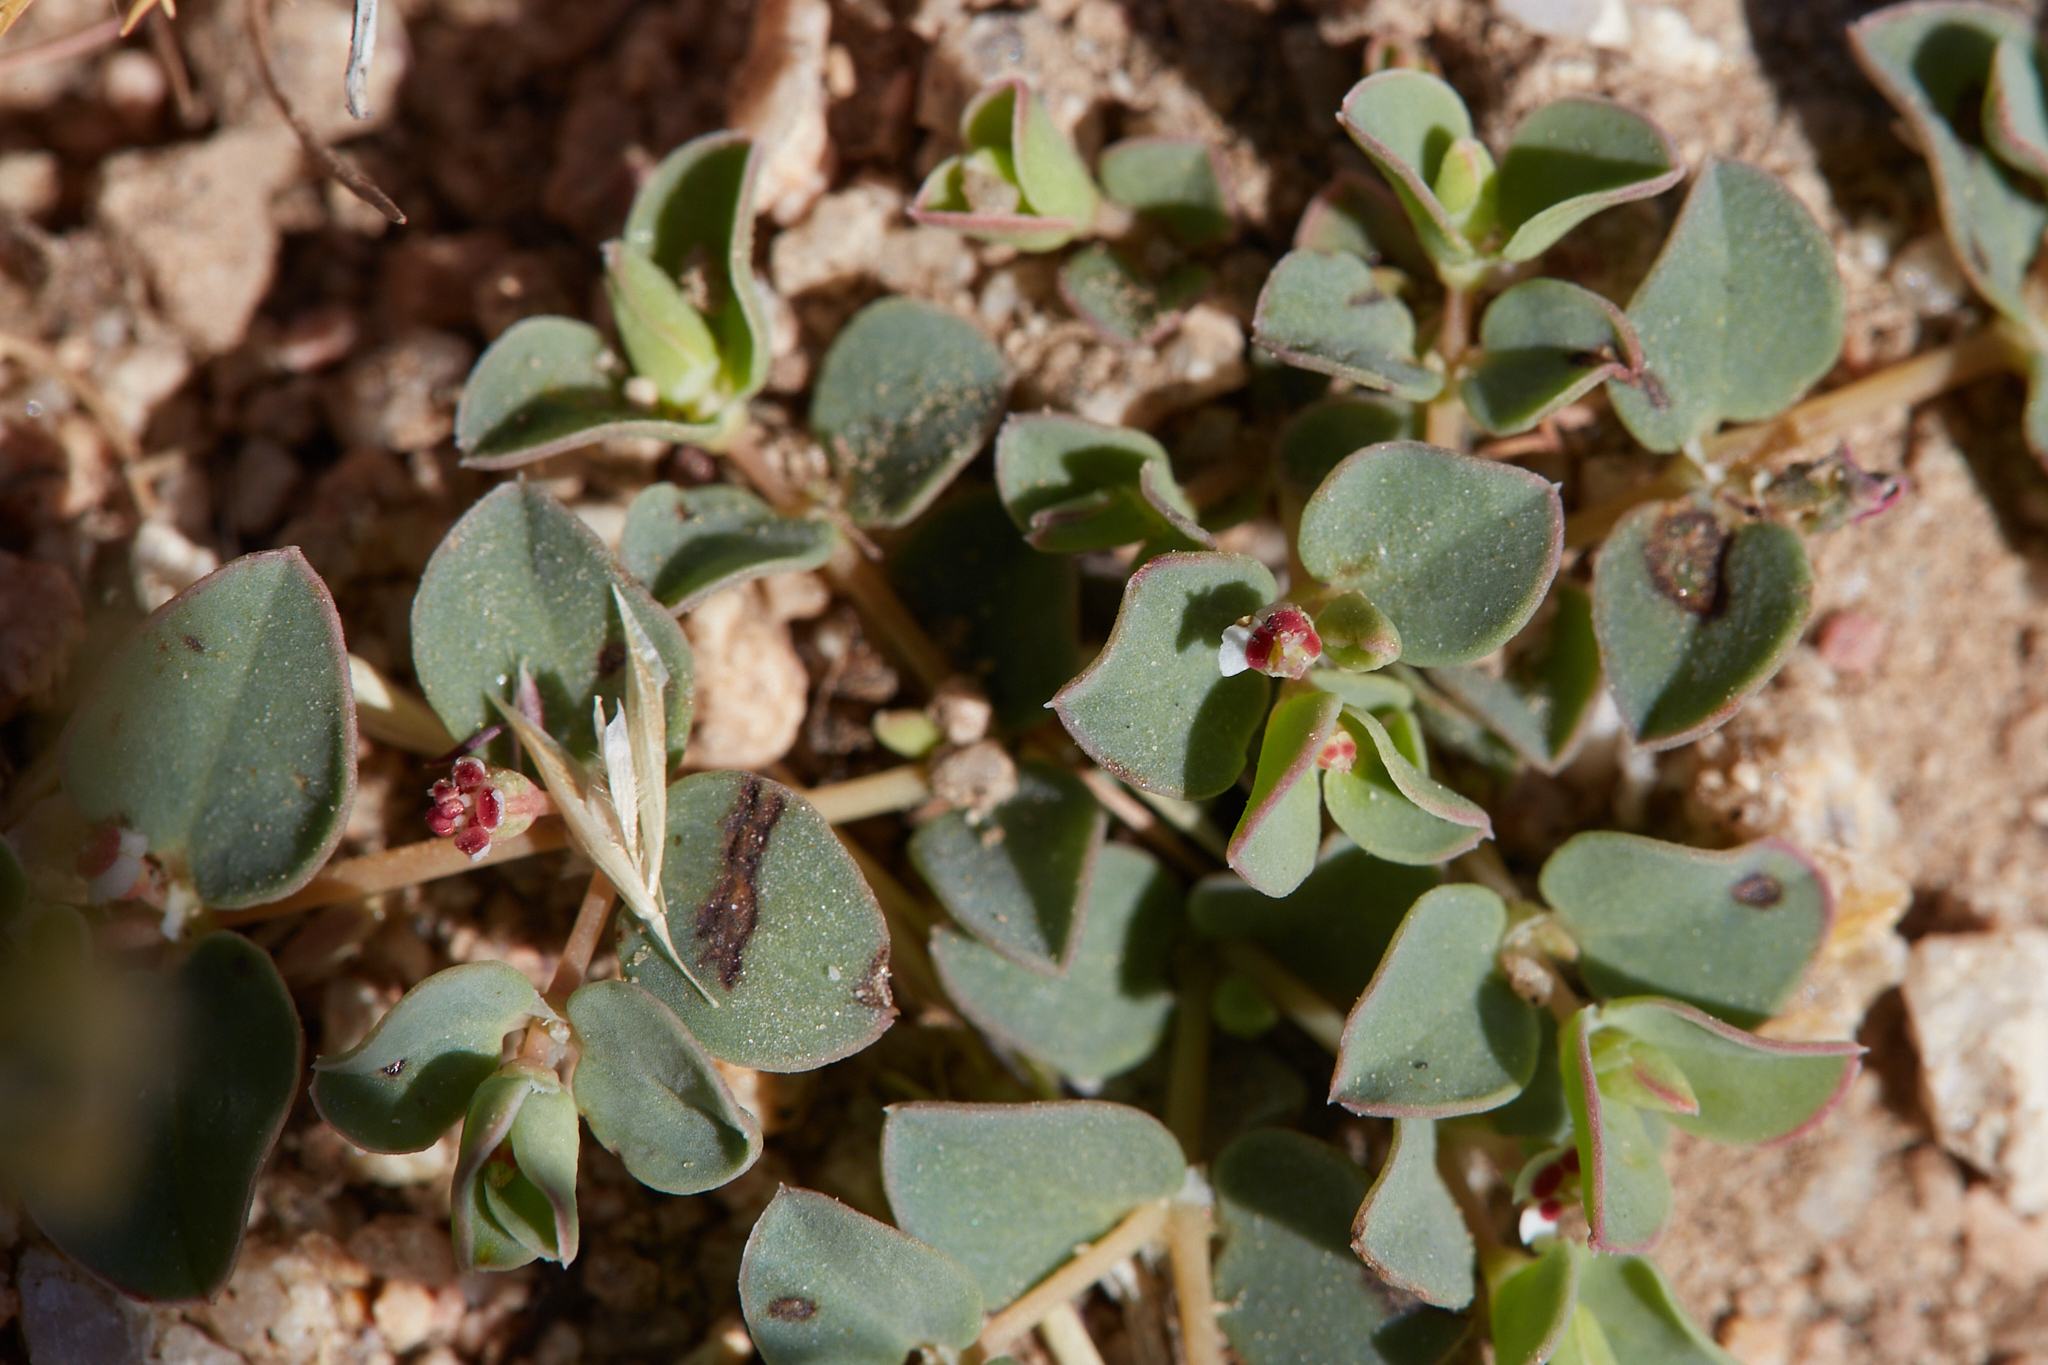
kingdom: Plantae
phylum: Tracheophyta
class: Magnoliopsida
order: Malpighiales
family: Euphorbiaceae
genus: Euphorbia
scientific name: Euphorbia albomarginata
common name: Whitemargin sandmat
